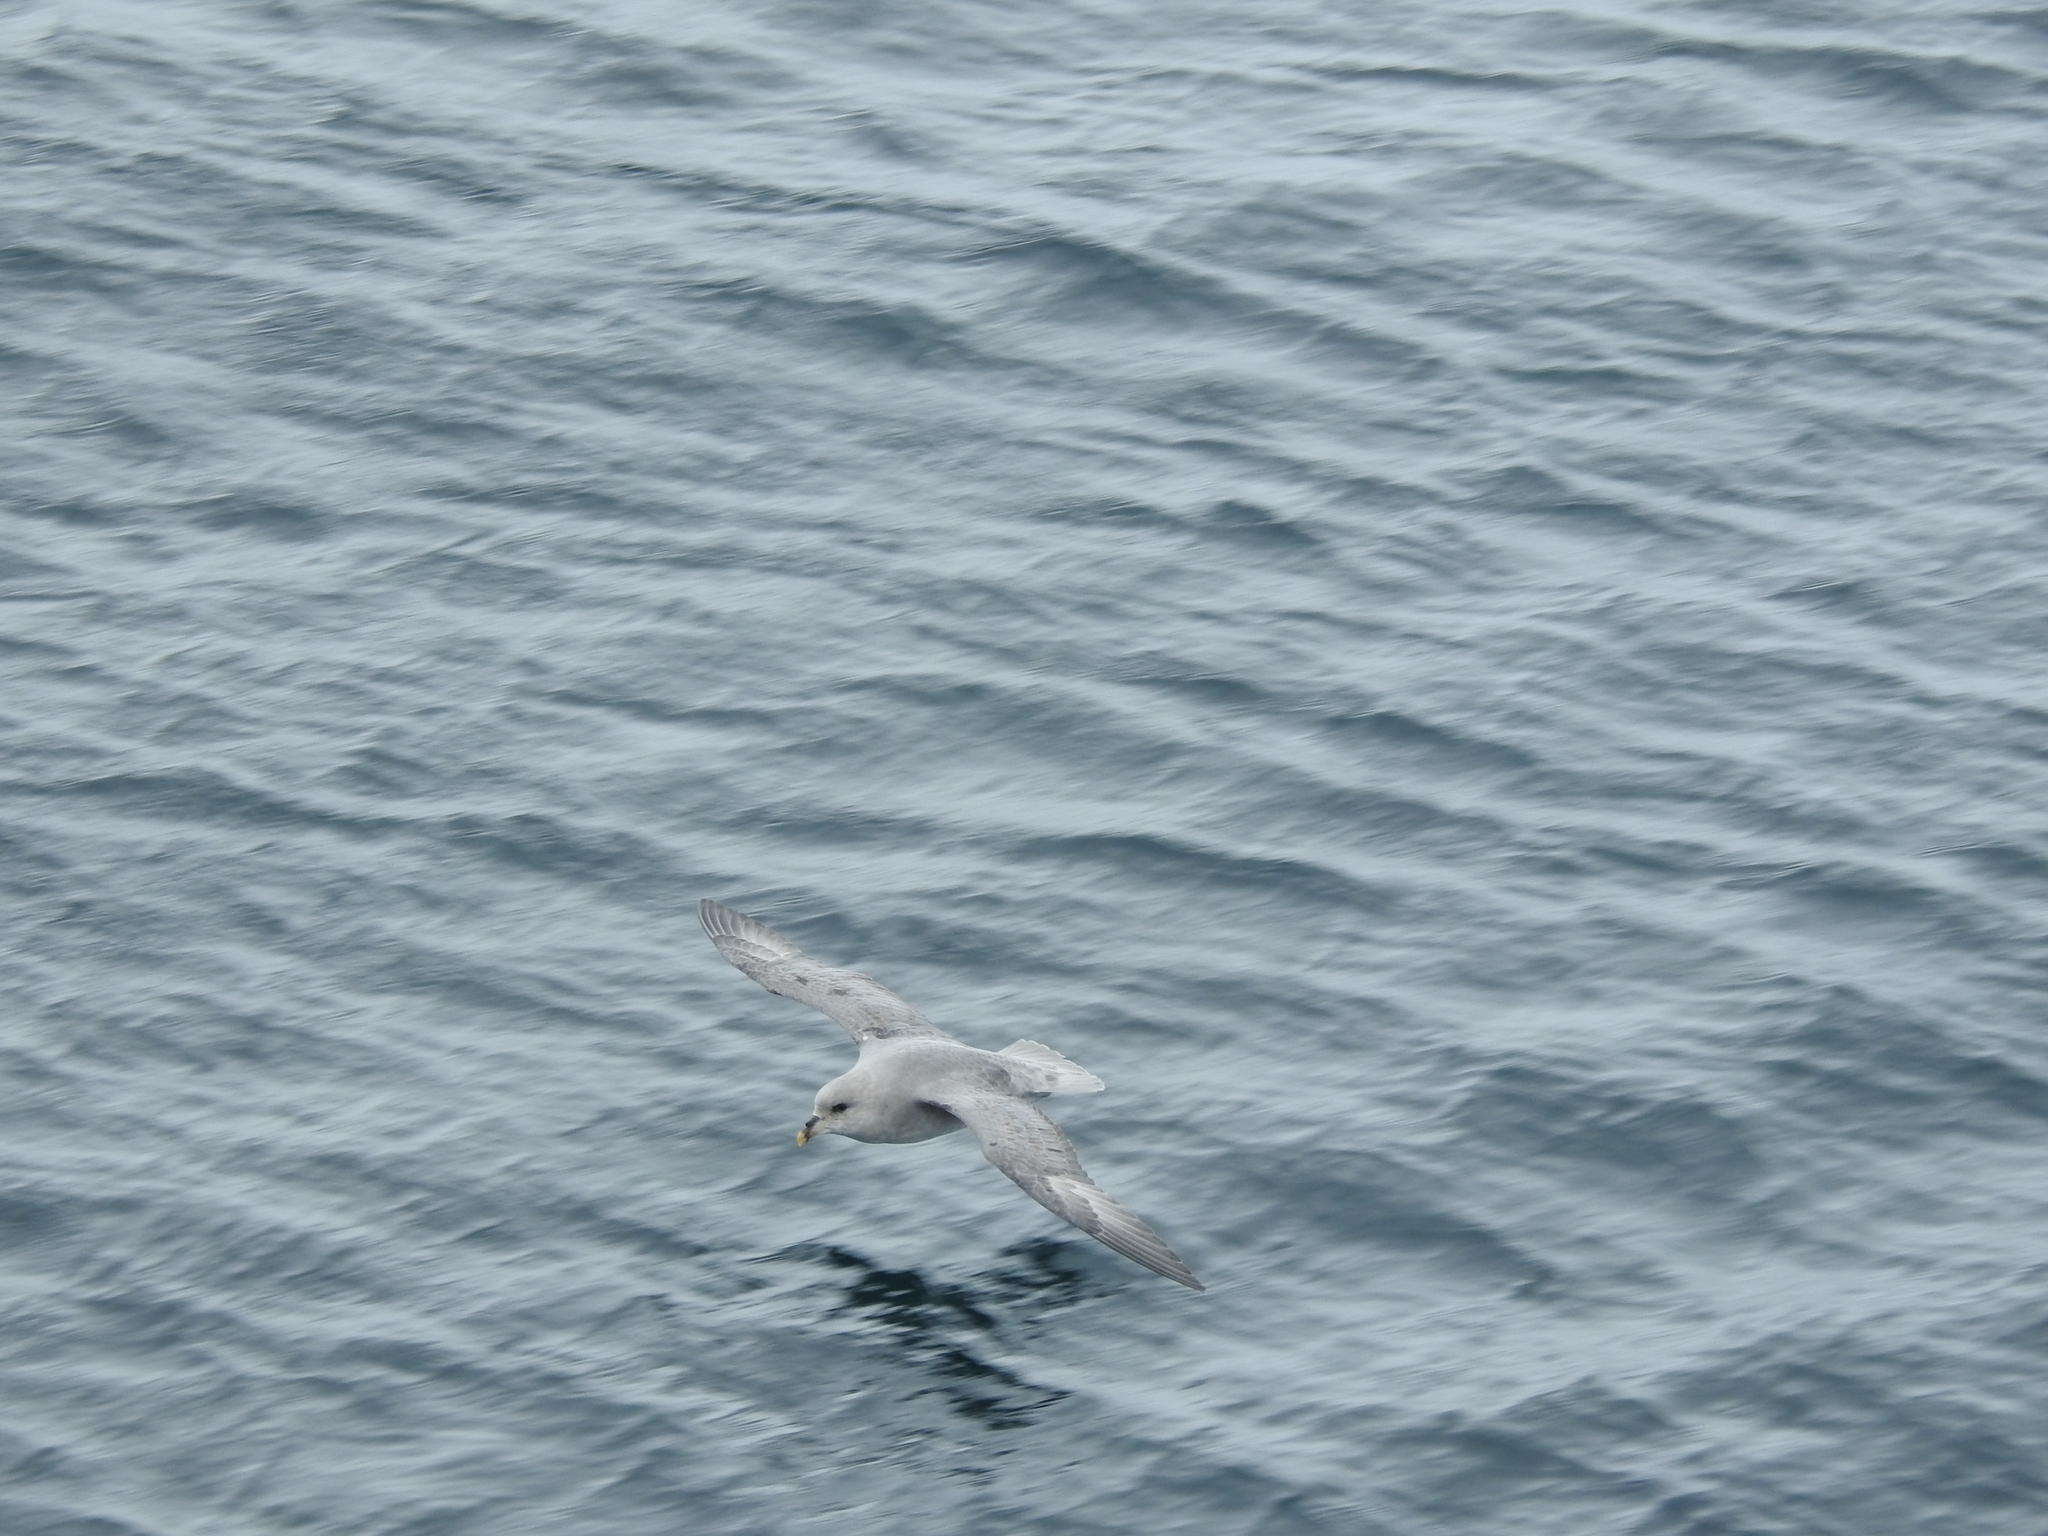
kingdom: Animalia
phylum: Chordata
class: Aves
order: Procellariiformes
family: Procellariidae
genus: Fulmarus
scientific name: Fulmarus glacialis
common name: Northern fulmar
